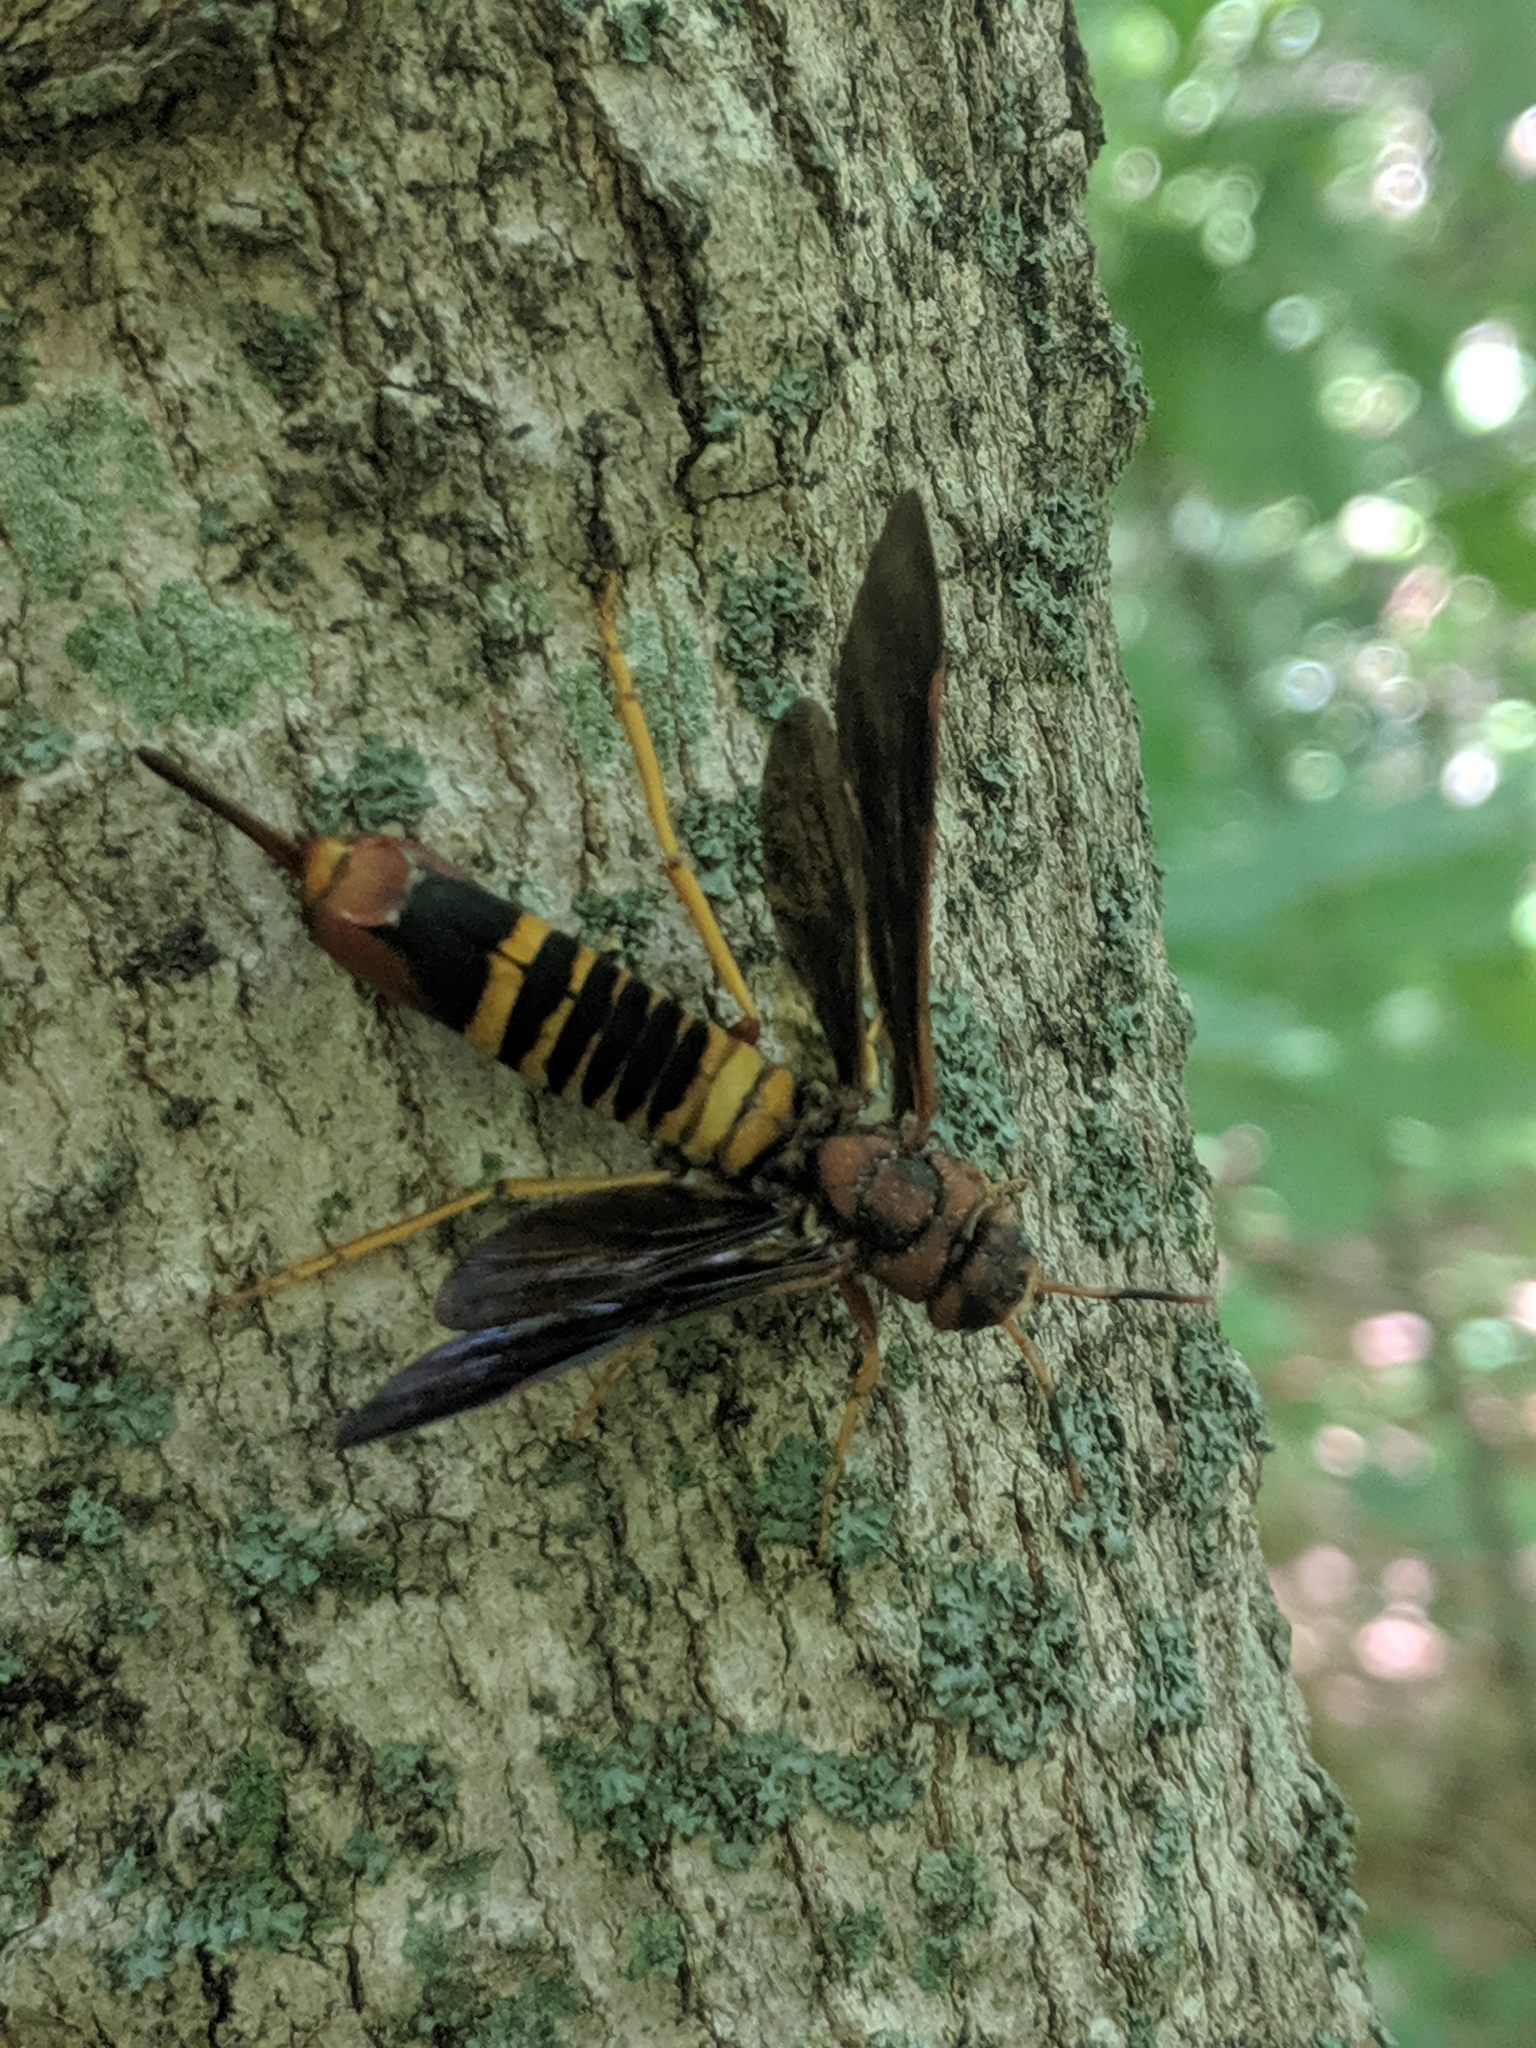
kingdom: Animalia
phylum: Arthropoda
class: Insecta
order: Hymenoptera
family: Siricidae
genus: Tremex
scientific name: Tremex columba
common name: Wasp
